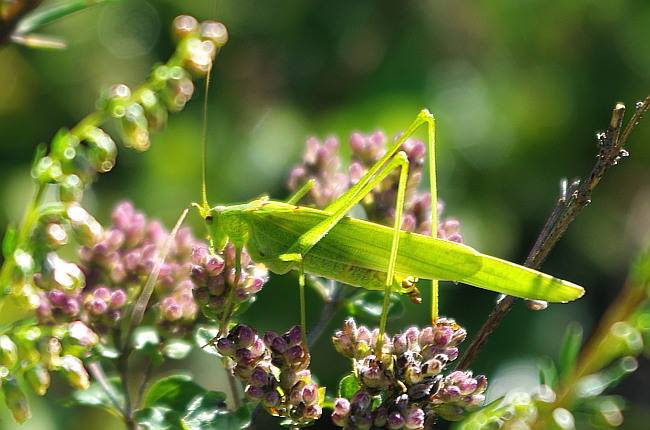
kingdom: Animalia
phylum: Arthropoda
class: Insecta
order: Orthoptera
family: Tettigoniidae
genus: Phaneroptera
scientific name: Phaneroptera falcata
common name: Sickle-bearing bush-cricket
